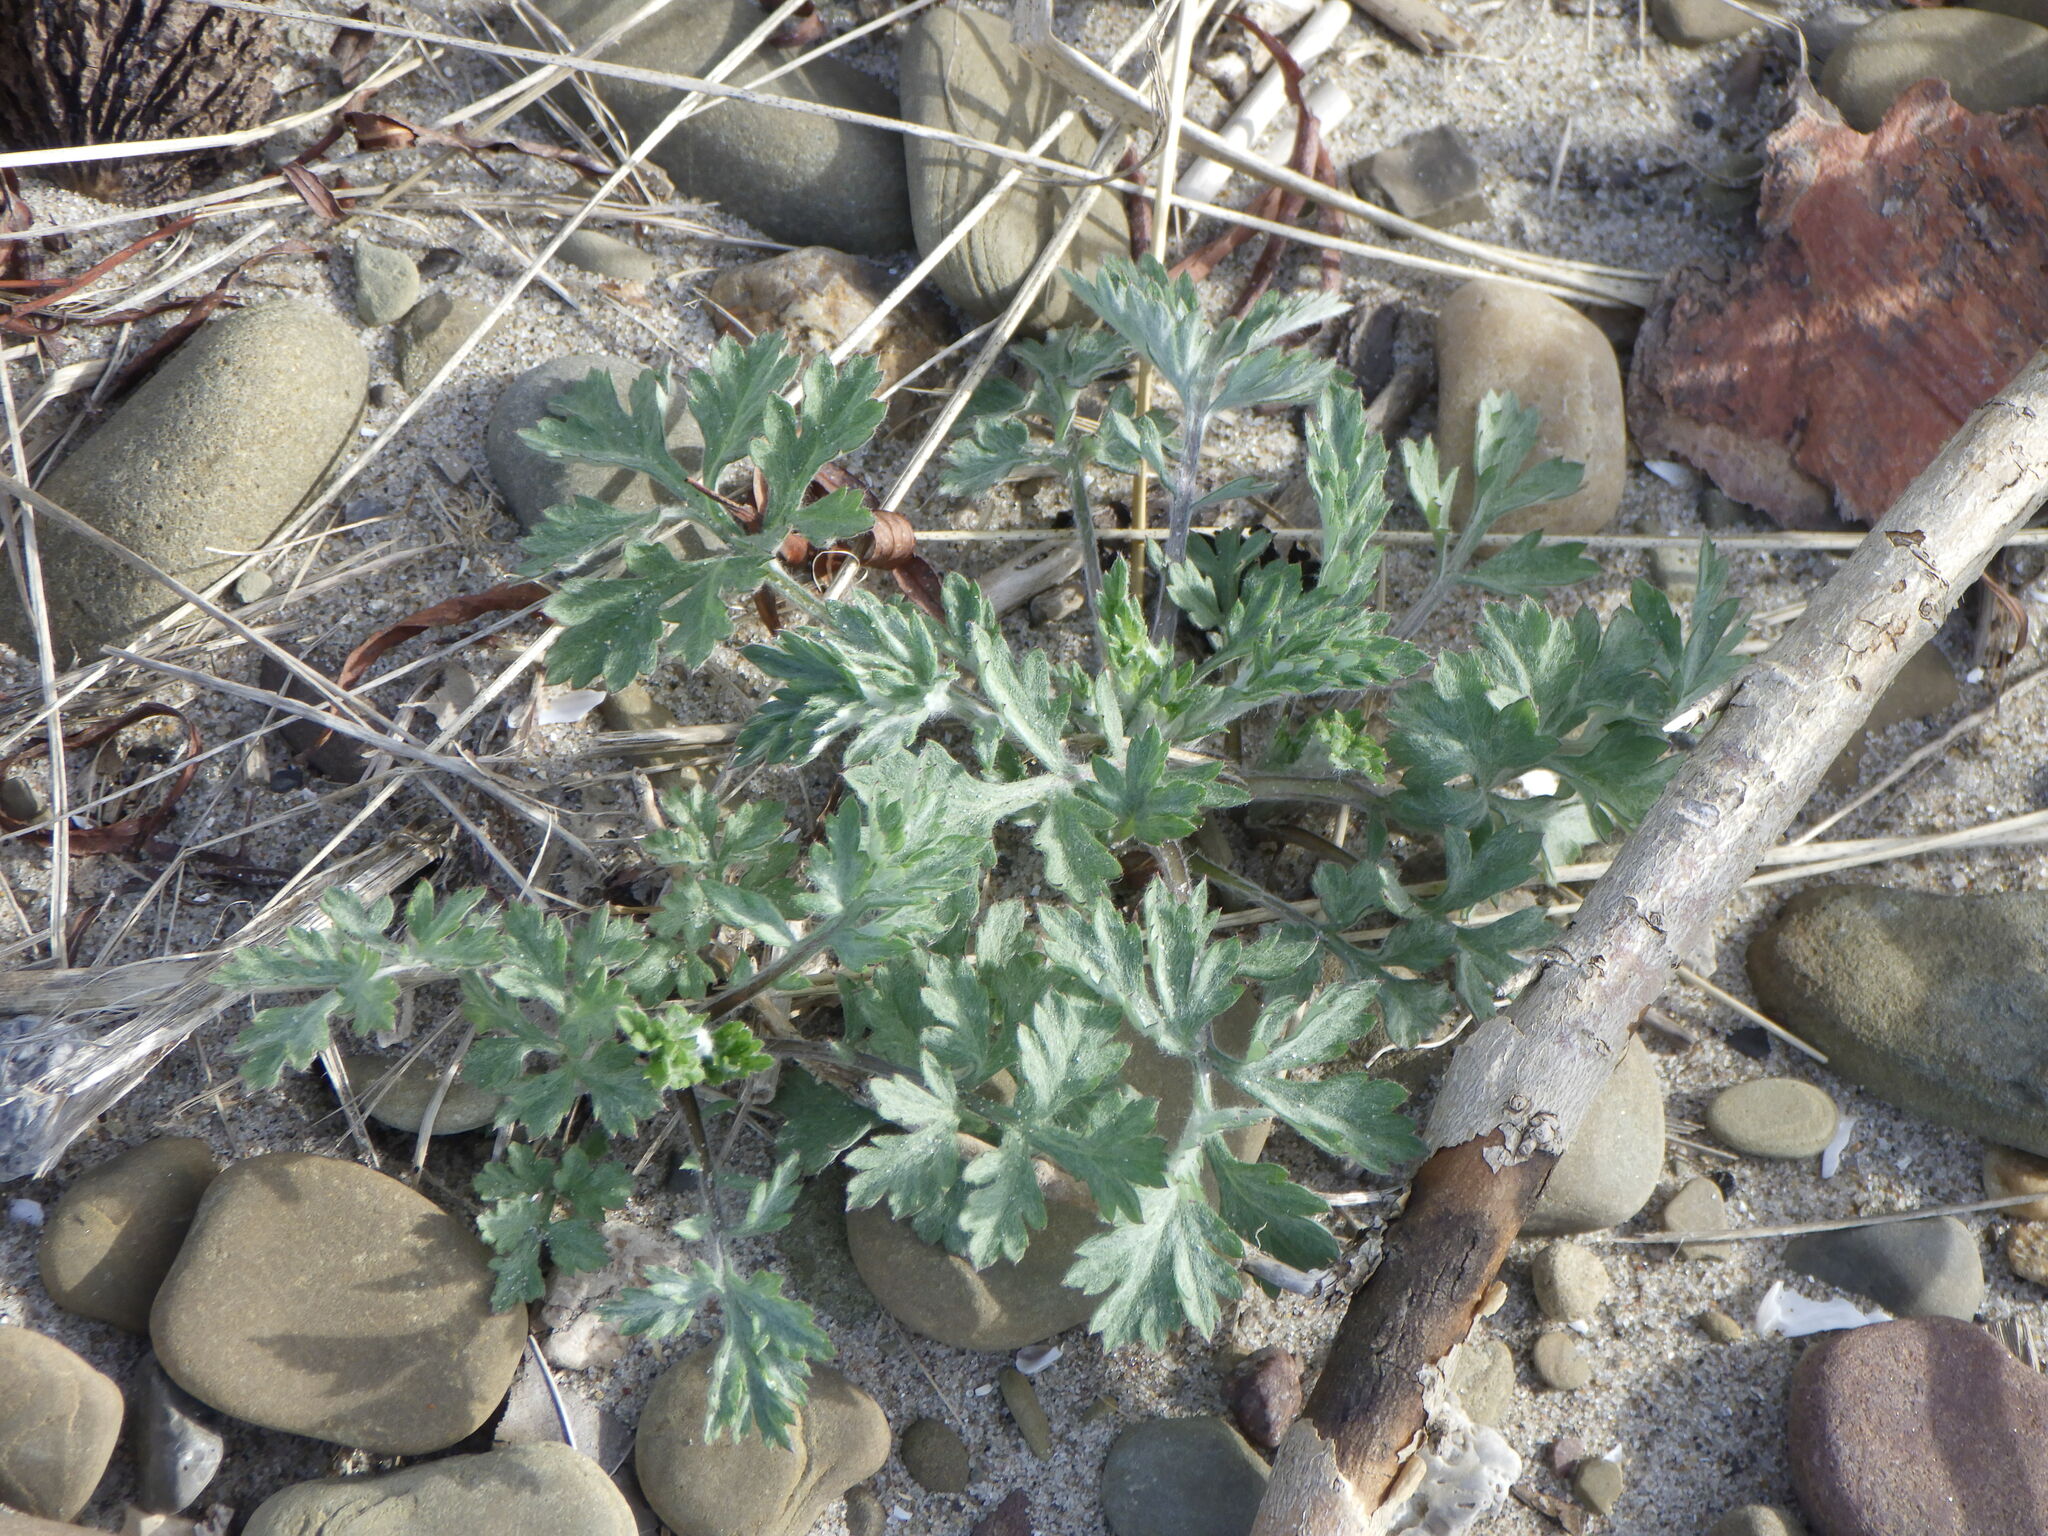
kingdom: Plantae
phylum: Tracheophyta
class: Magnoliopsida
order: Asterales
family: Asteraceae
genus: Artemisia
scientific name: Artemisia vulgaris
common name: Mugwort
